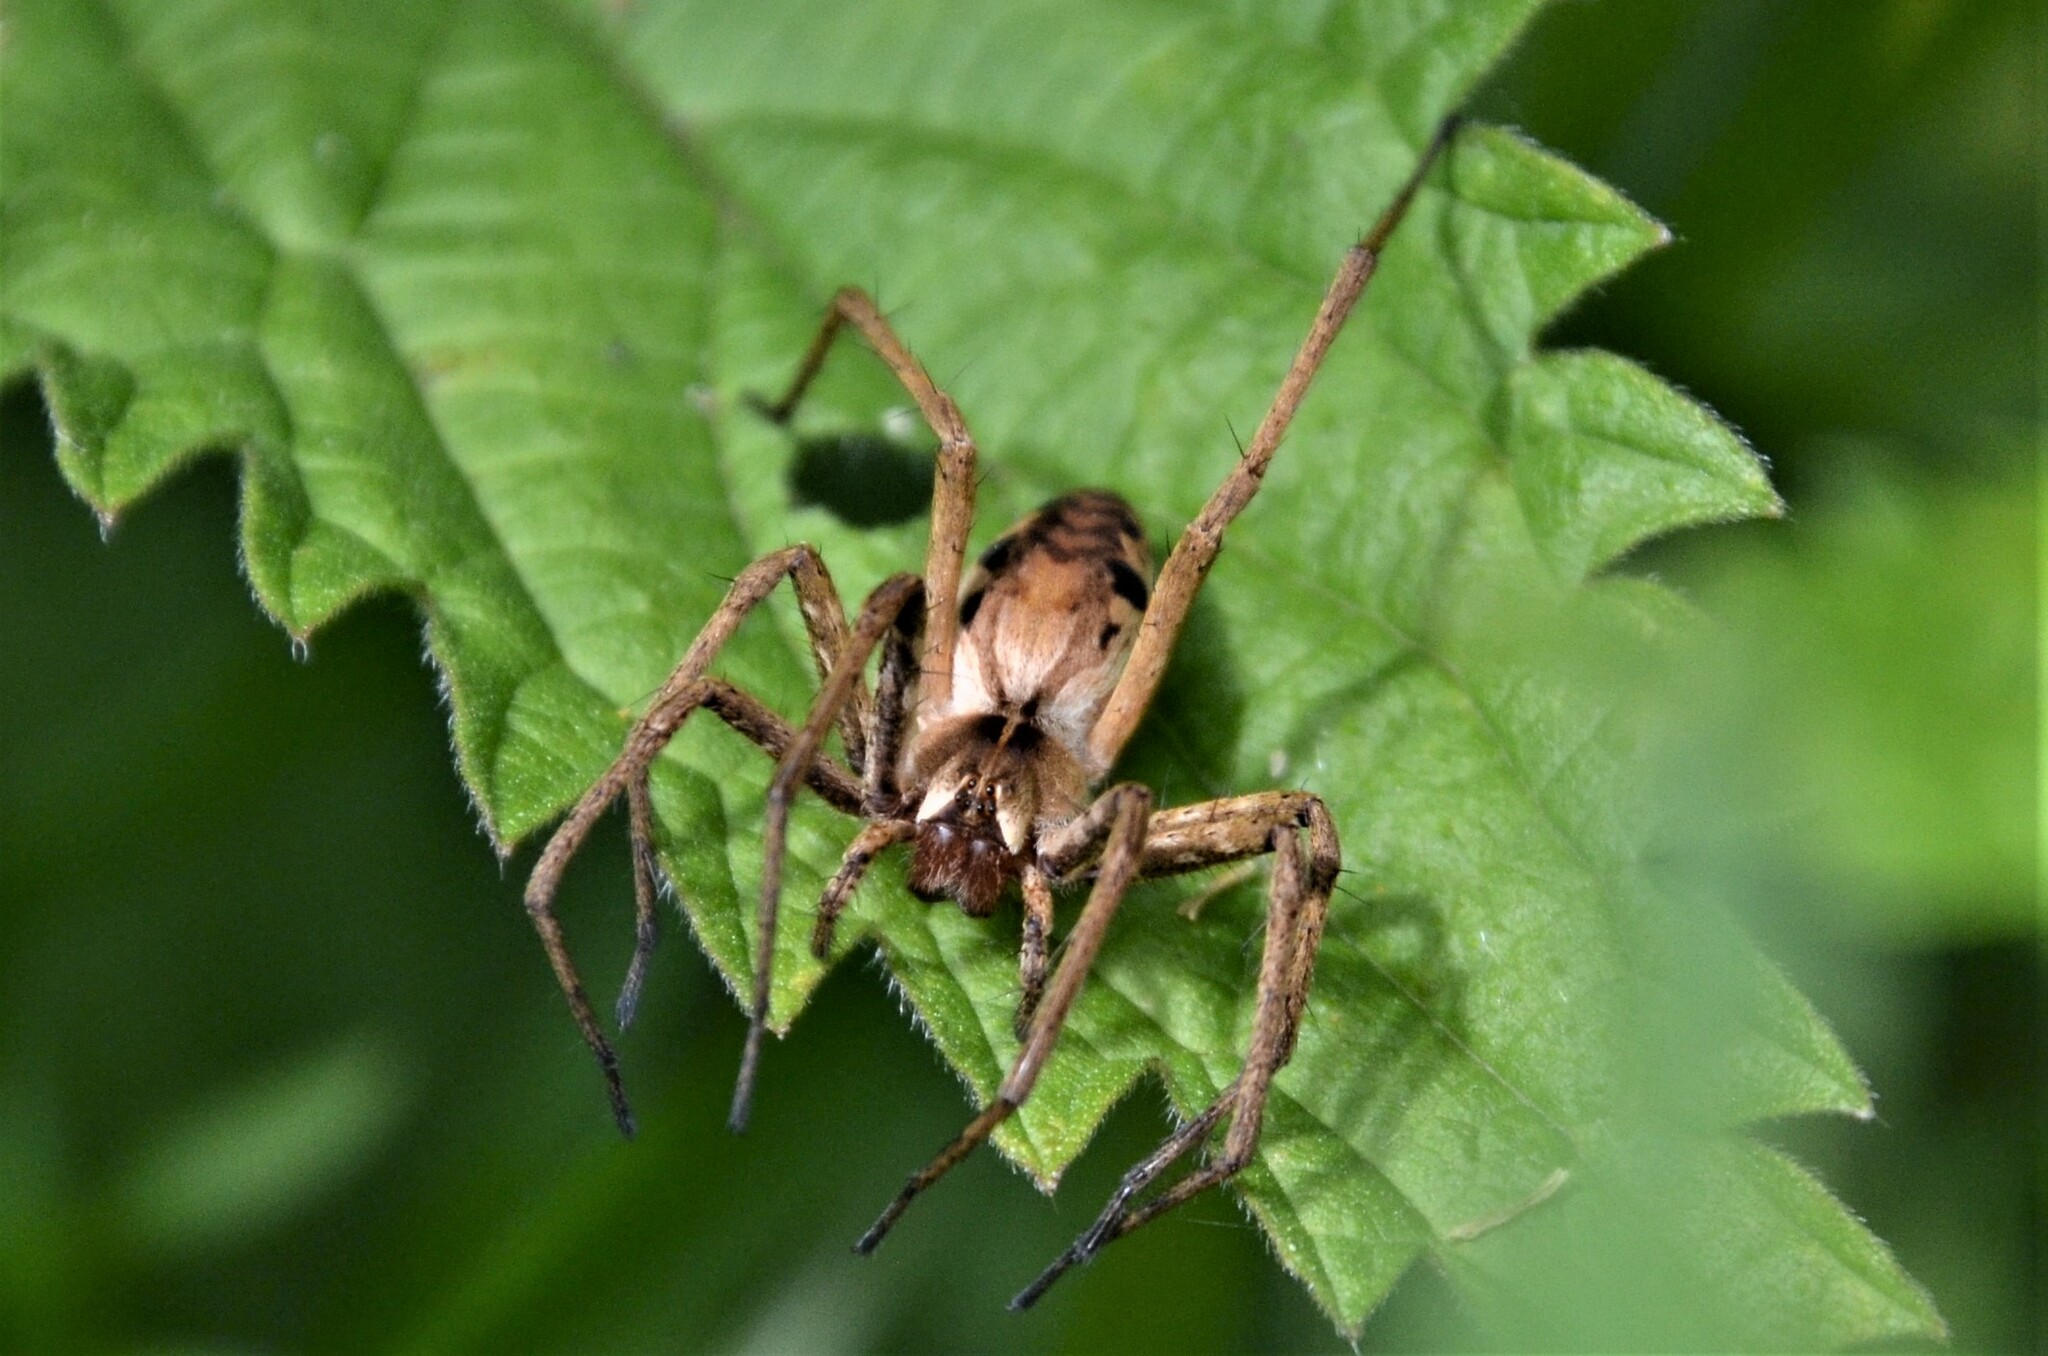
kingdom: Animalia
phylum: Arthropoda
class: Arachnida
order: Araneae
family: Pisauridae
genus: Pisaura
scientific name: Pisaura mirabilis
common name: Tent spider
